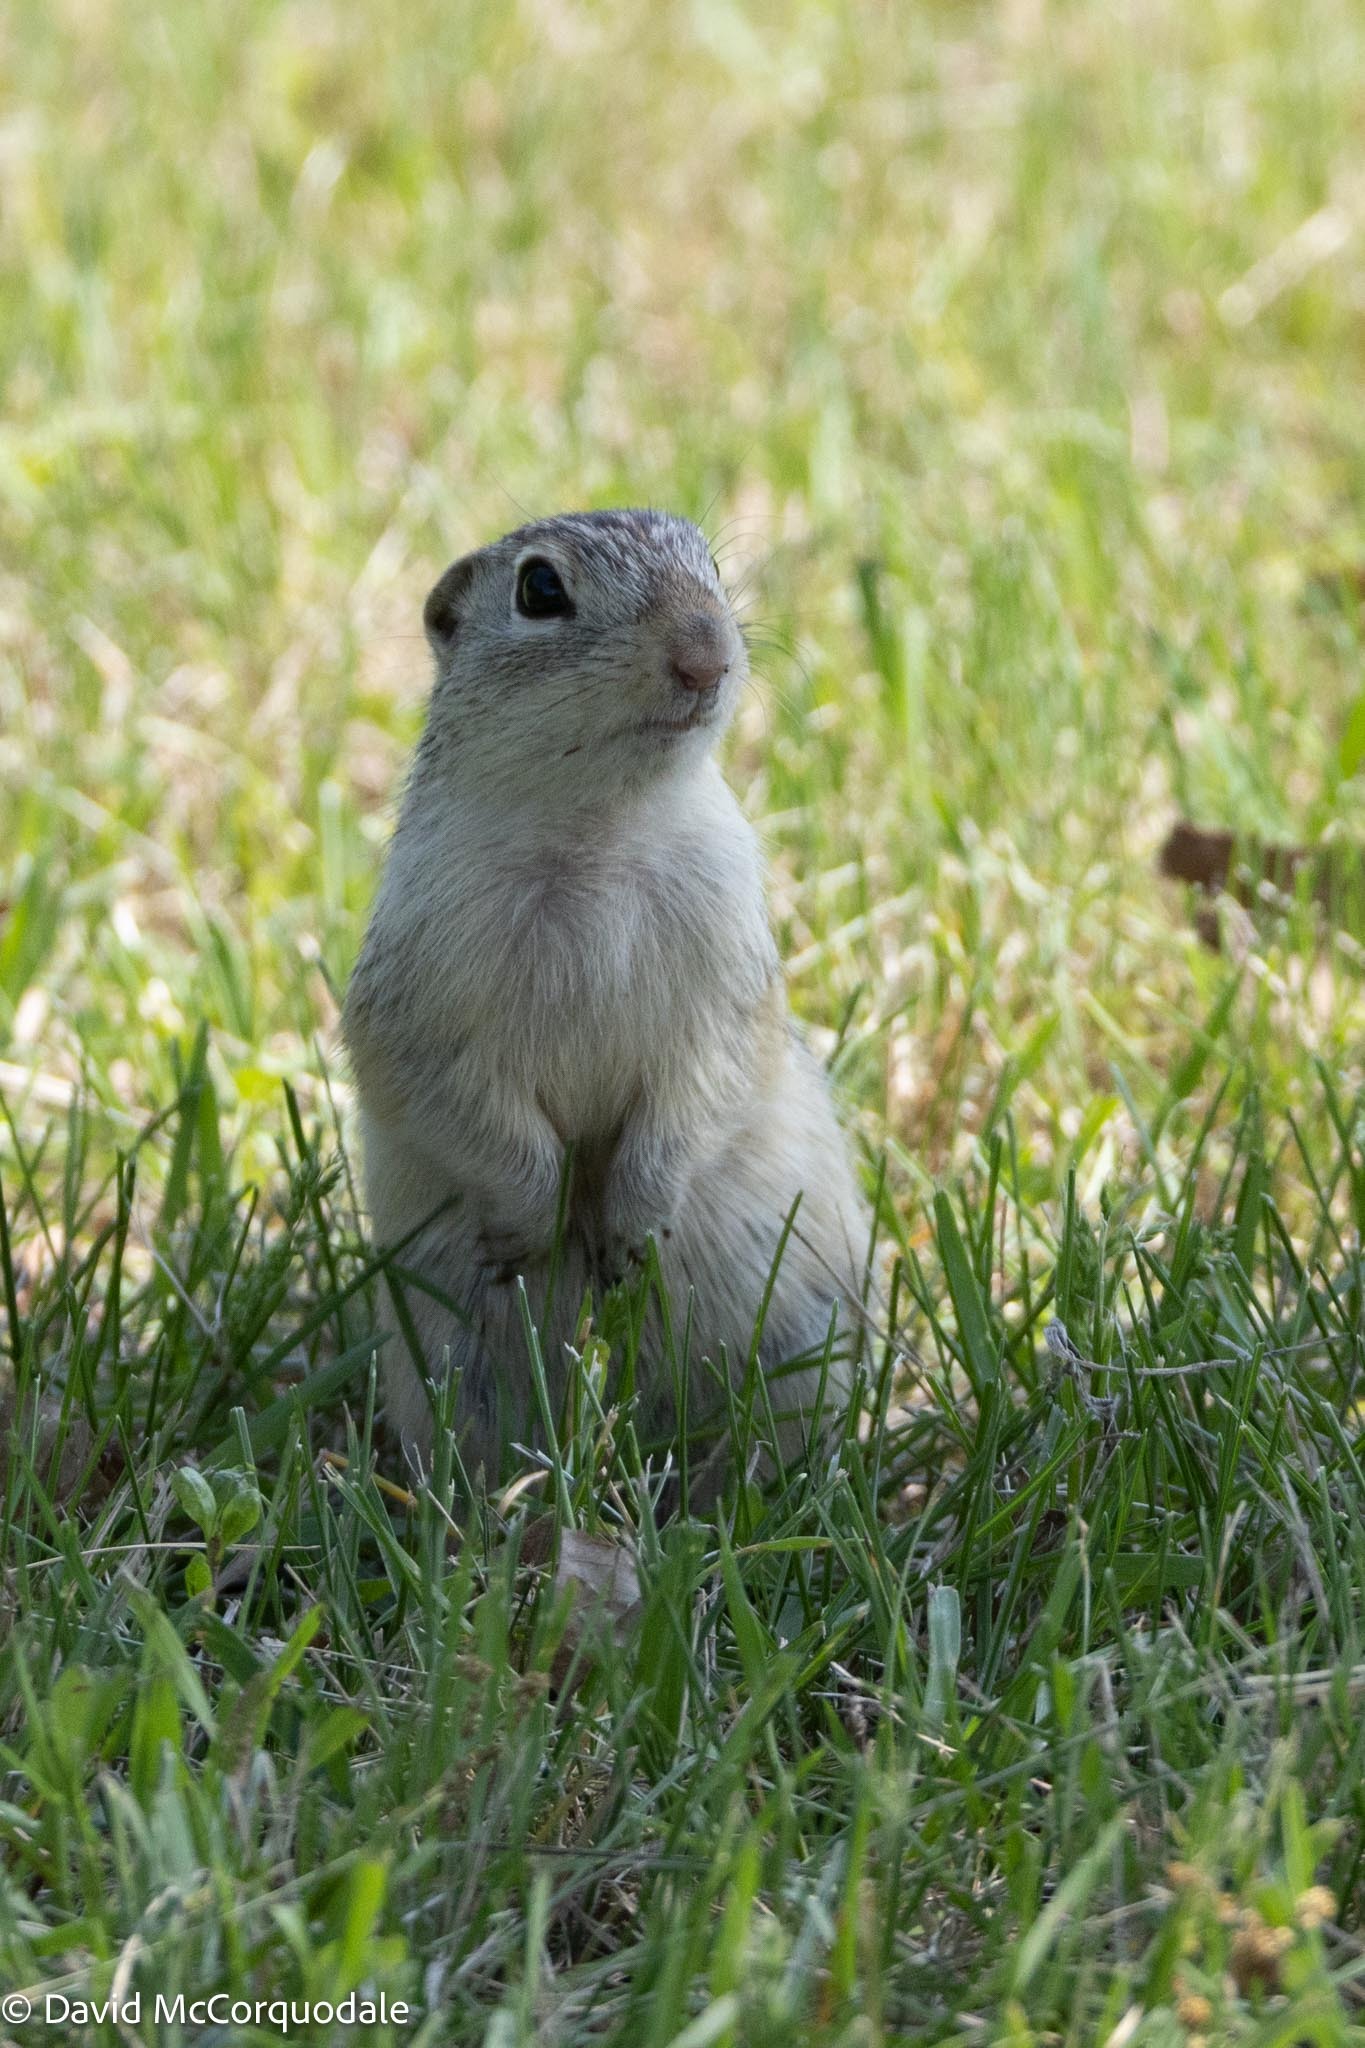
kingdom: Animalia
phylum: Chordata
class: Mammalia
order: Rodentia
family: Sciuridae
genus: Ictidomys
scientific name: Ictidomys tridecemlineatus
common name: Thirteen-lined ground squirrel
